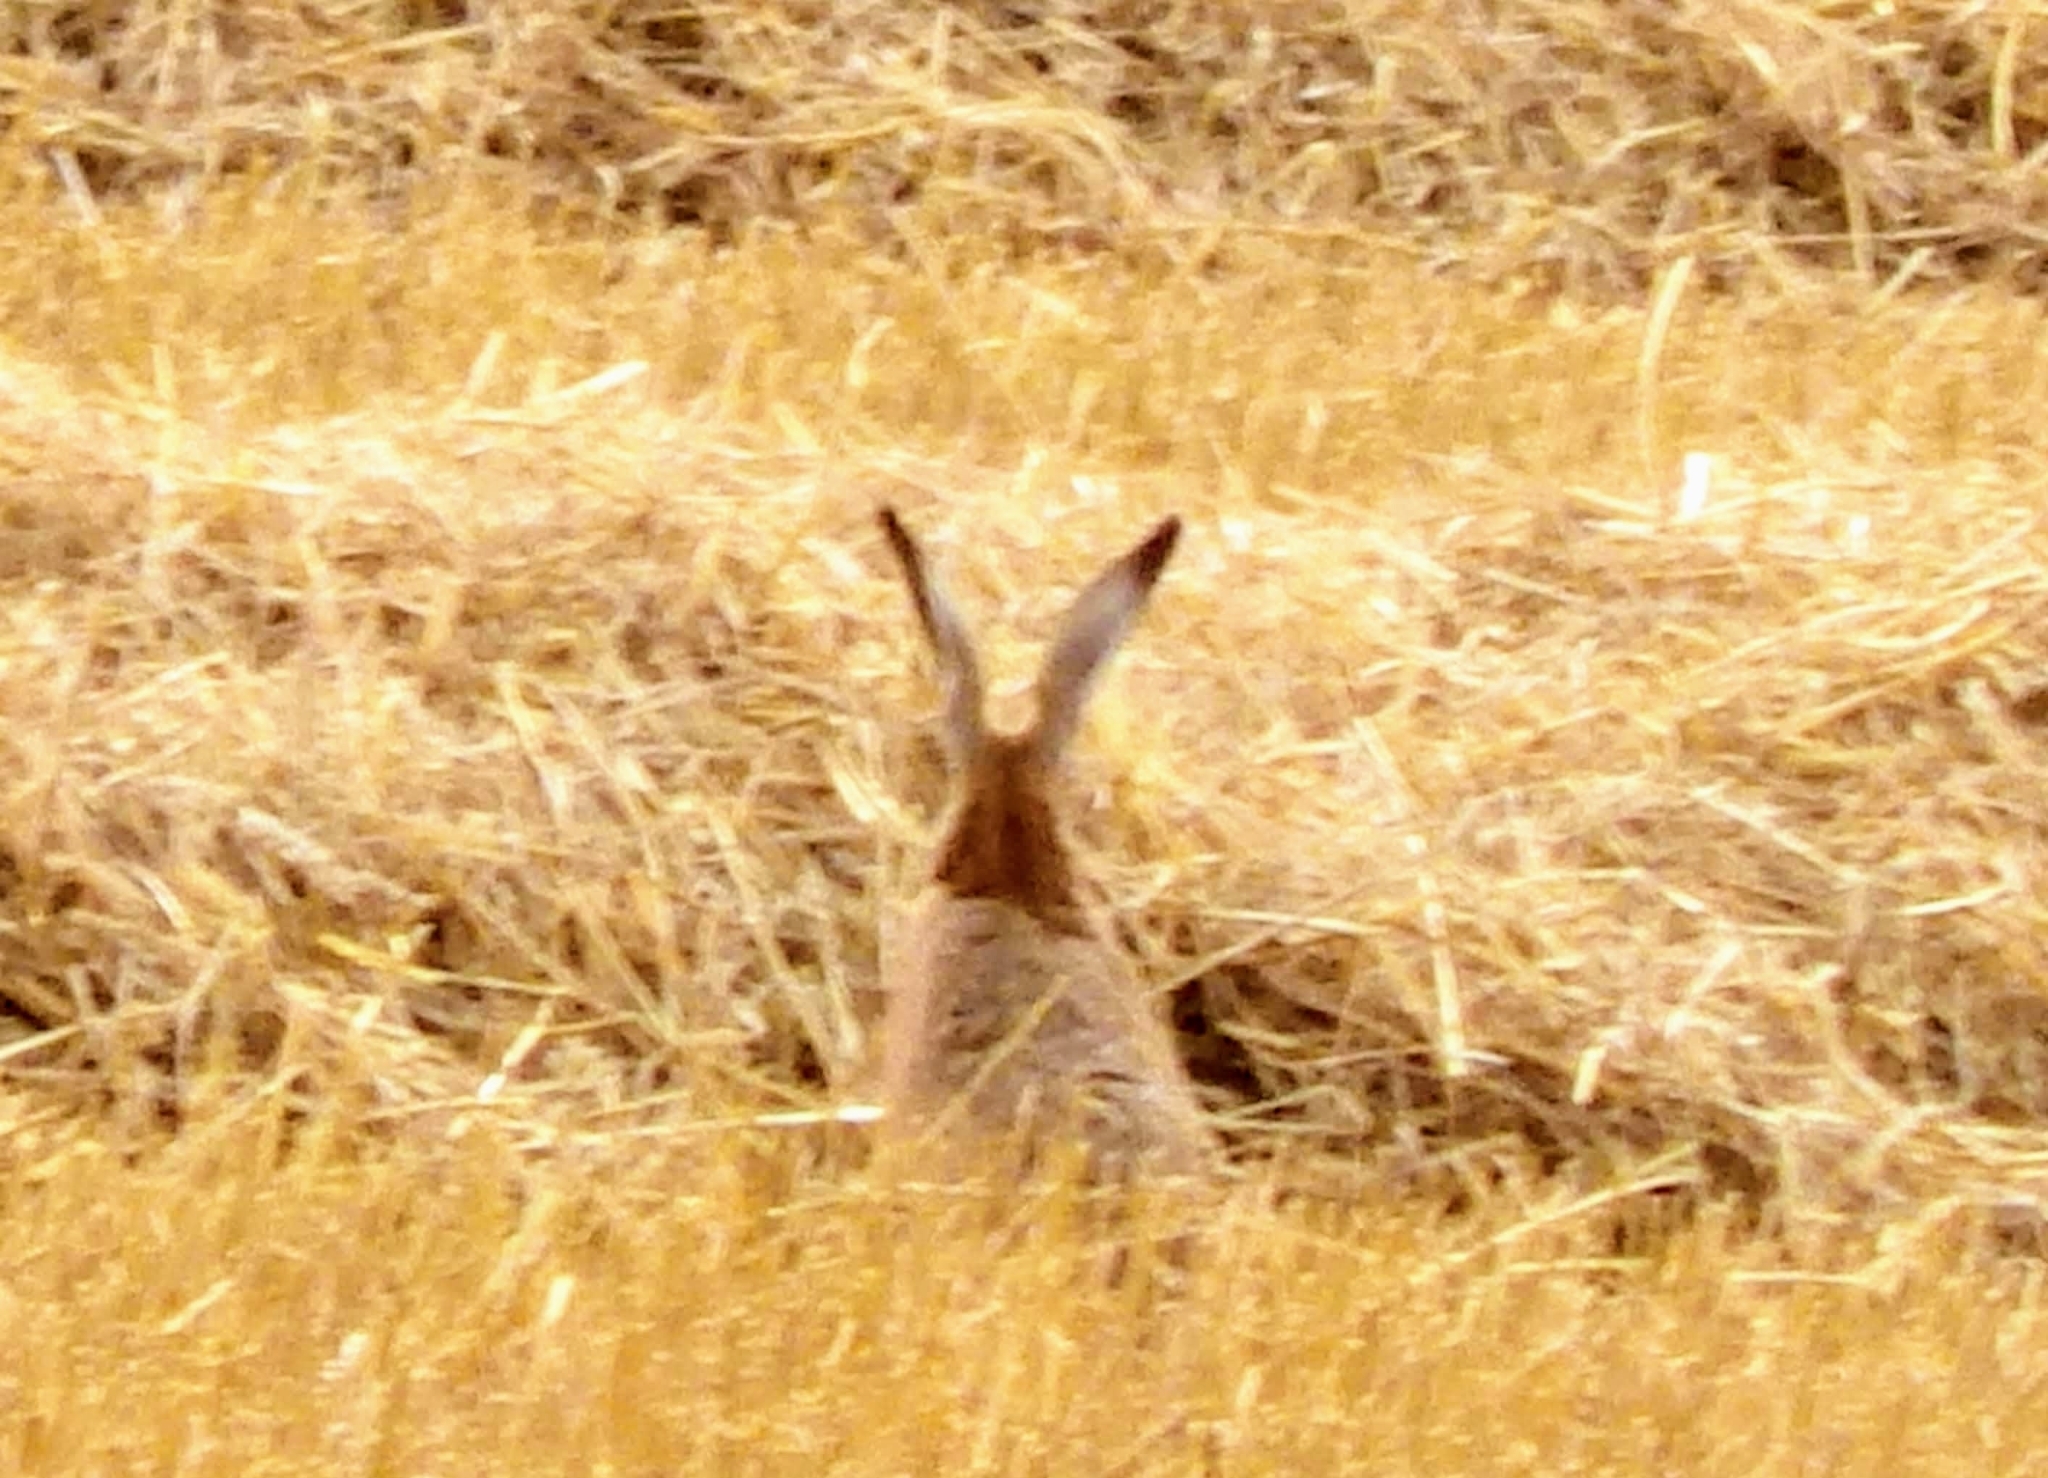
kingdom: Animalia
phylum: Chordata
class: Mammalia
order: Lagomorpha
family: Leporidae
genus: Lepus
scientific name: Lepus europaeus
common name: European hare
